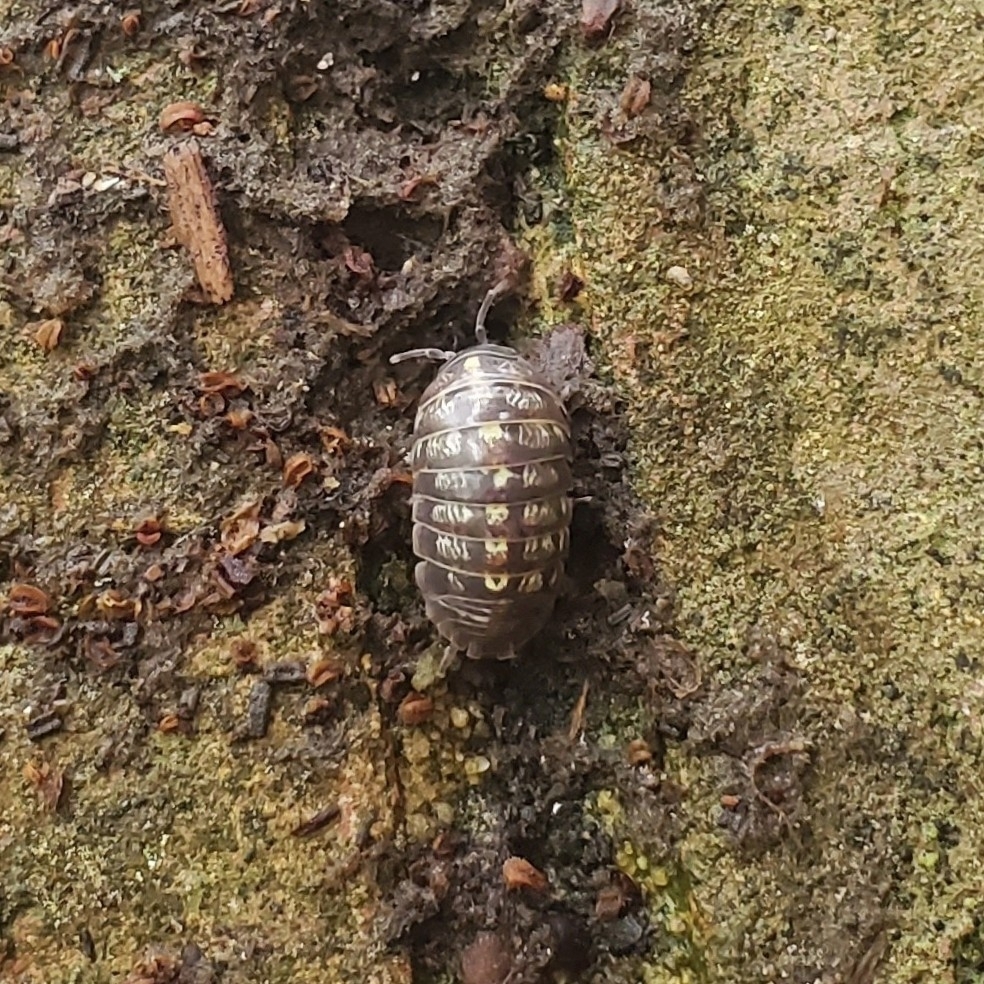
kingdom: Animalia
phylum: Arthropoda
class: Malacostraca
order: Isopoda
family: Armadillidiidae
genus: Armadillidium
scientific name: Armadillidium vulgare
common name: Common pill woodlouse
